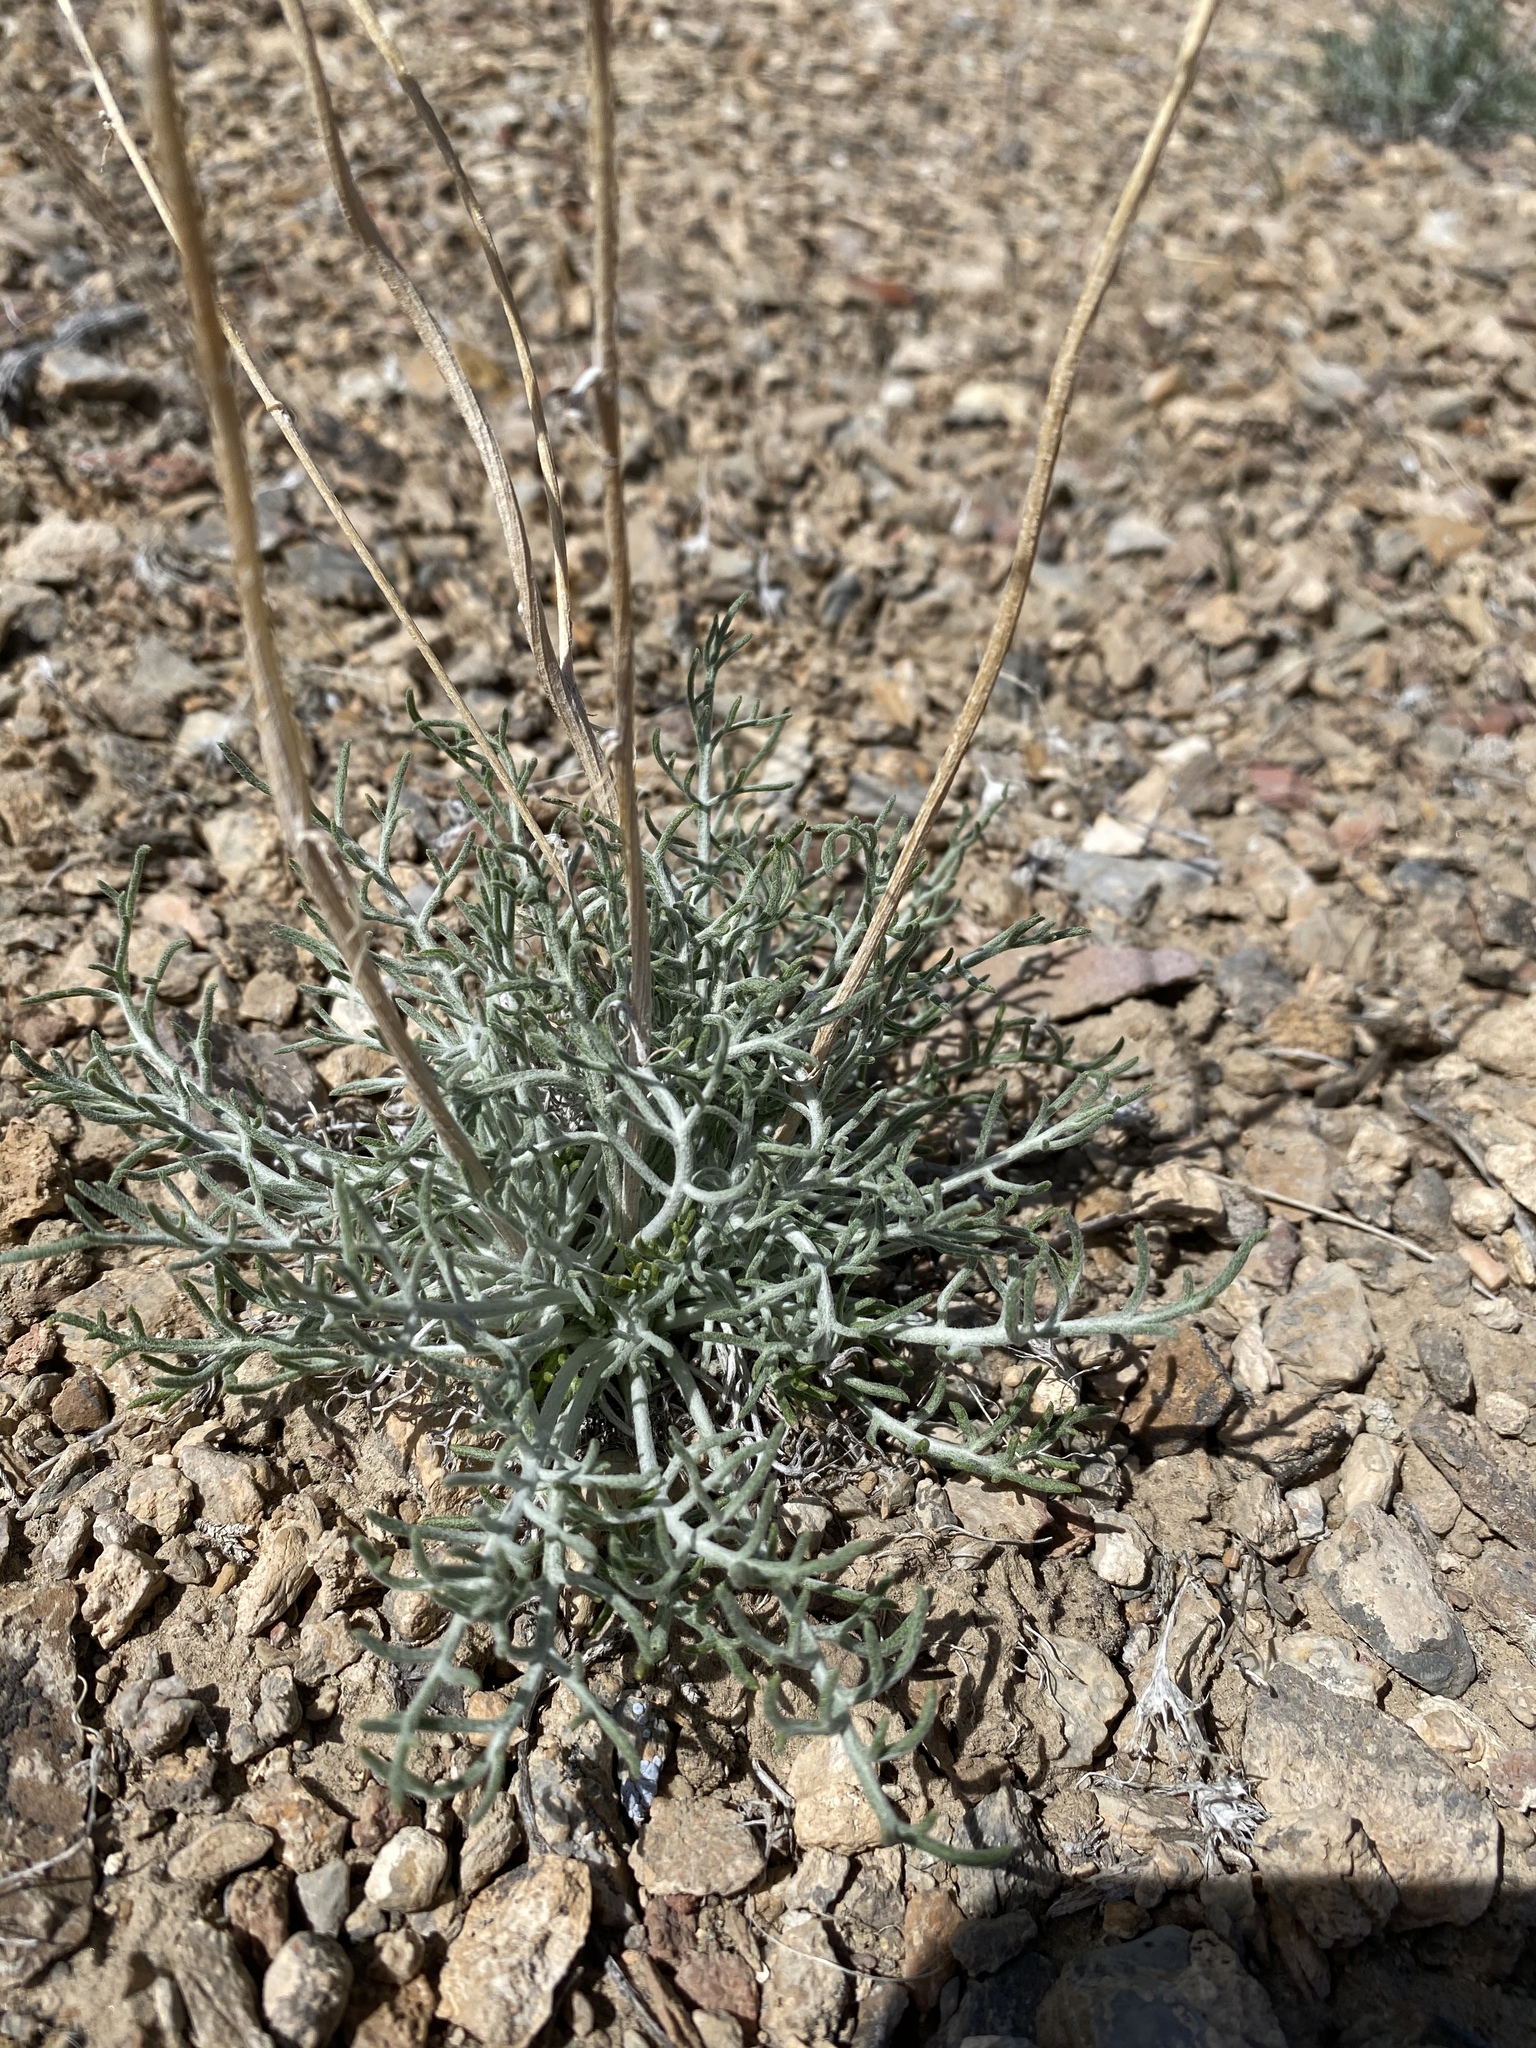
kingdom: Plantae
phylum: Tracheophyta
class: Magnoliopsida
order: Asterales
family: Asteraceae
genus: Hymenopappus
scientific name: Hymenopappus filifolius
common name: Columbia cutleaf
